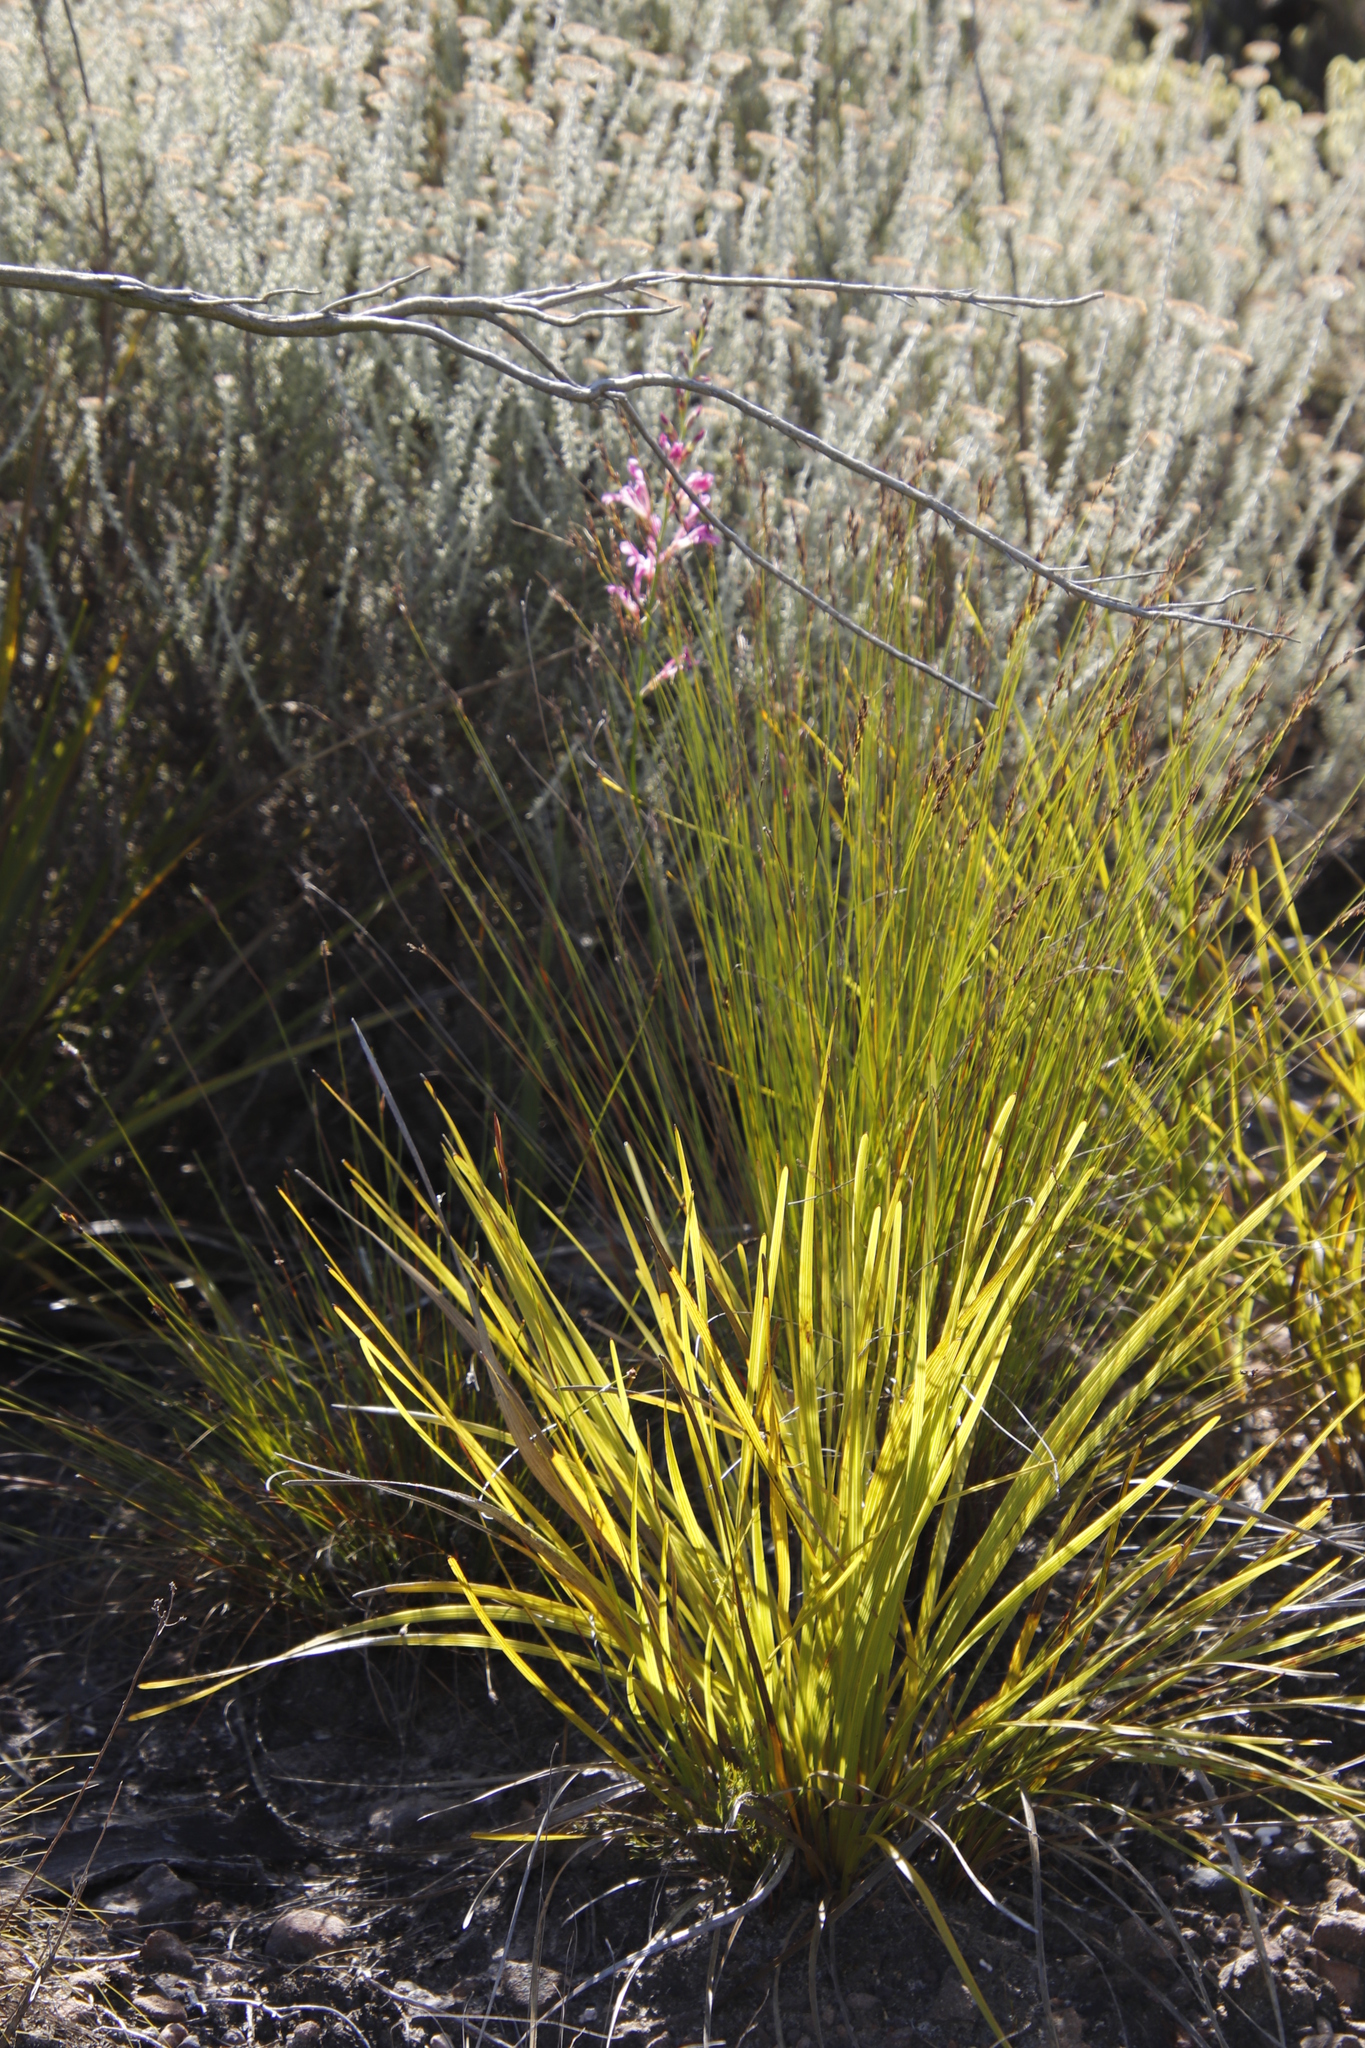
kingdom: Plantae
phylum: Tracheophyta
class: Liliopsida
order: Asparagales
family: Iridaceae
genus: Tritoniopsis
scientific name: Tritoniopsis lata
